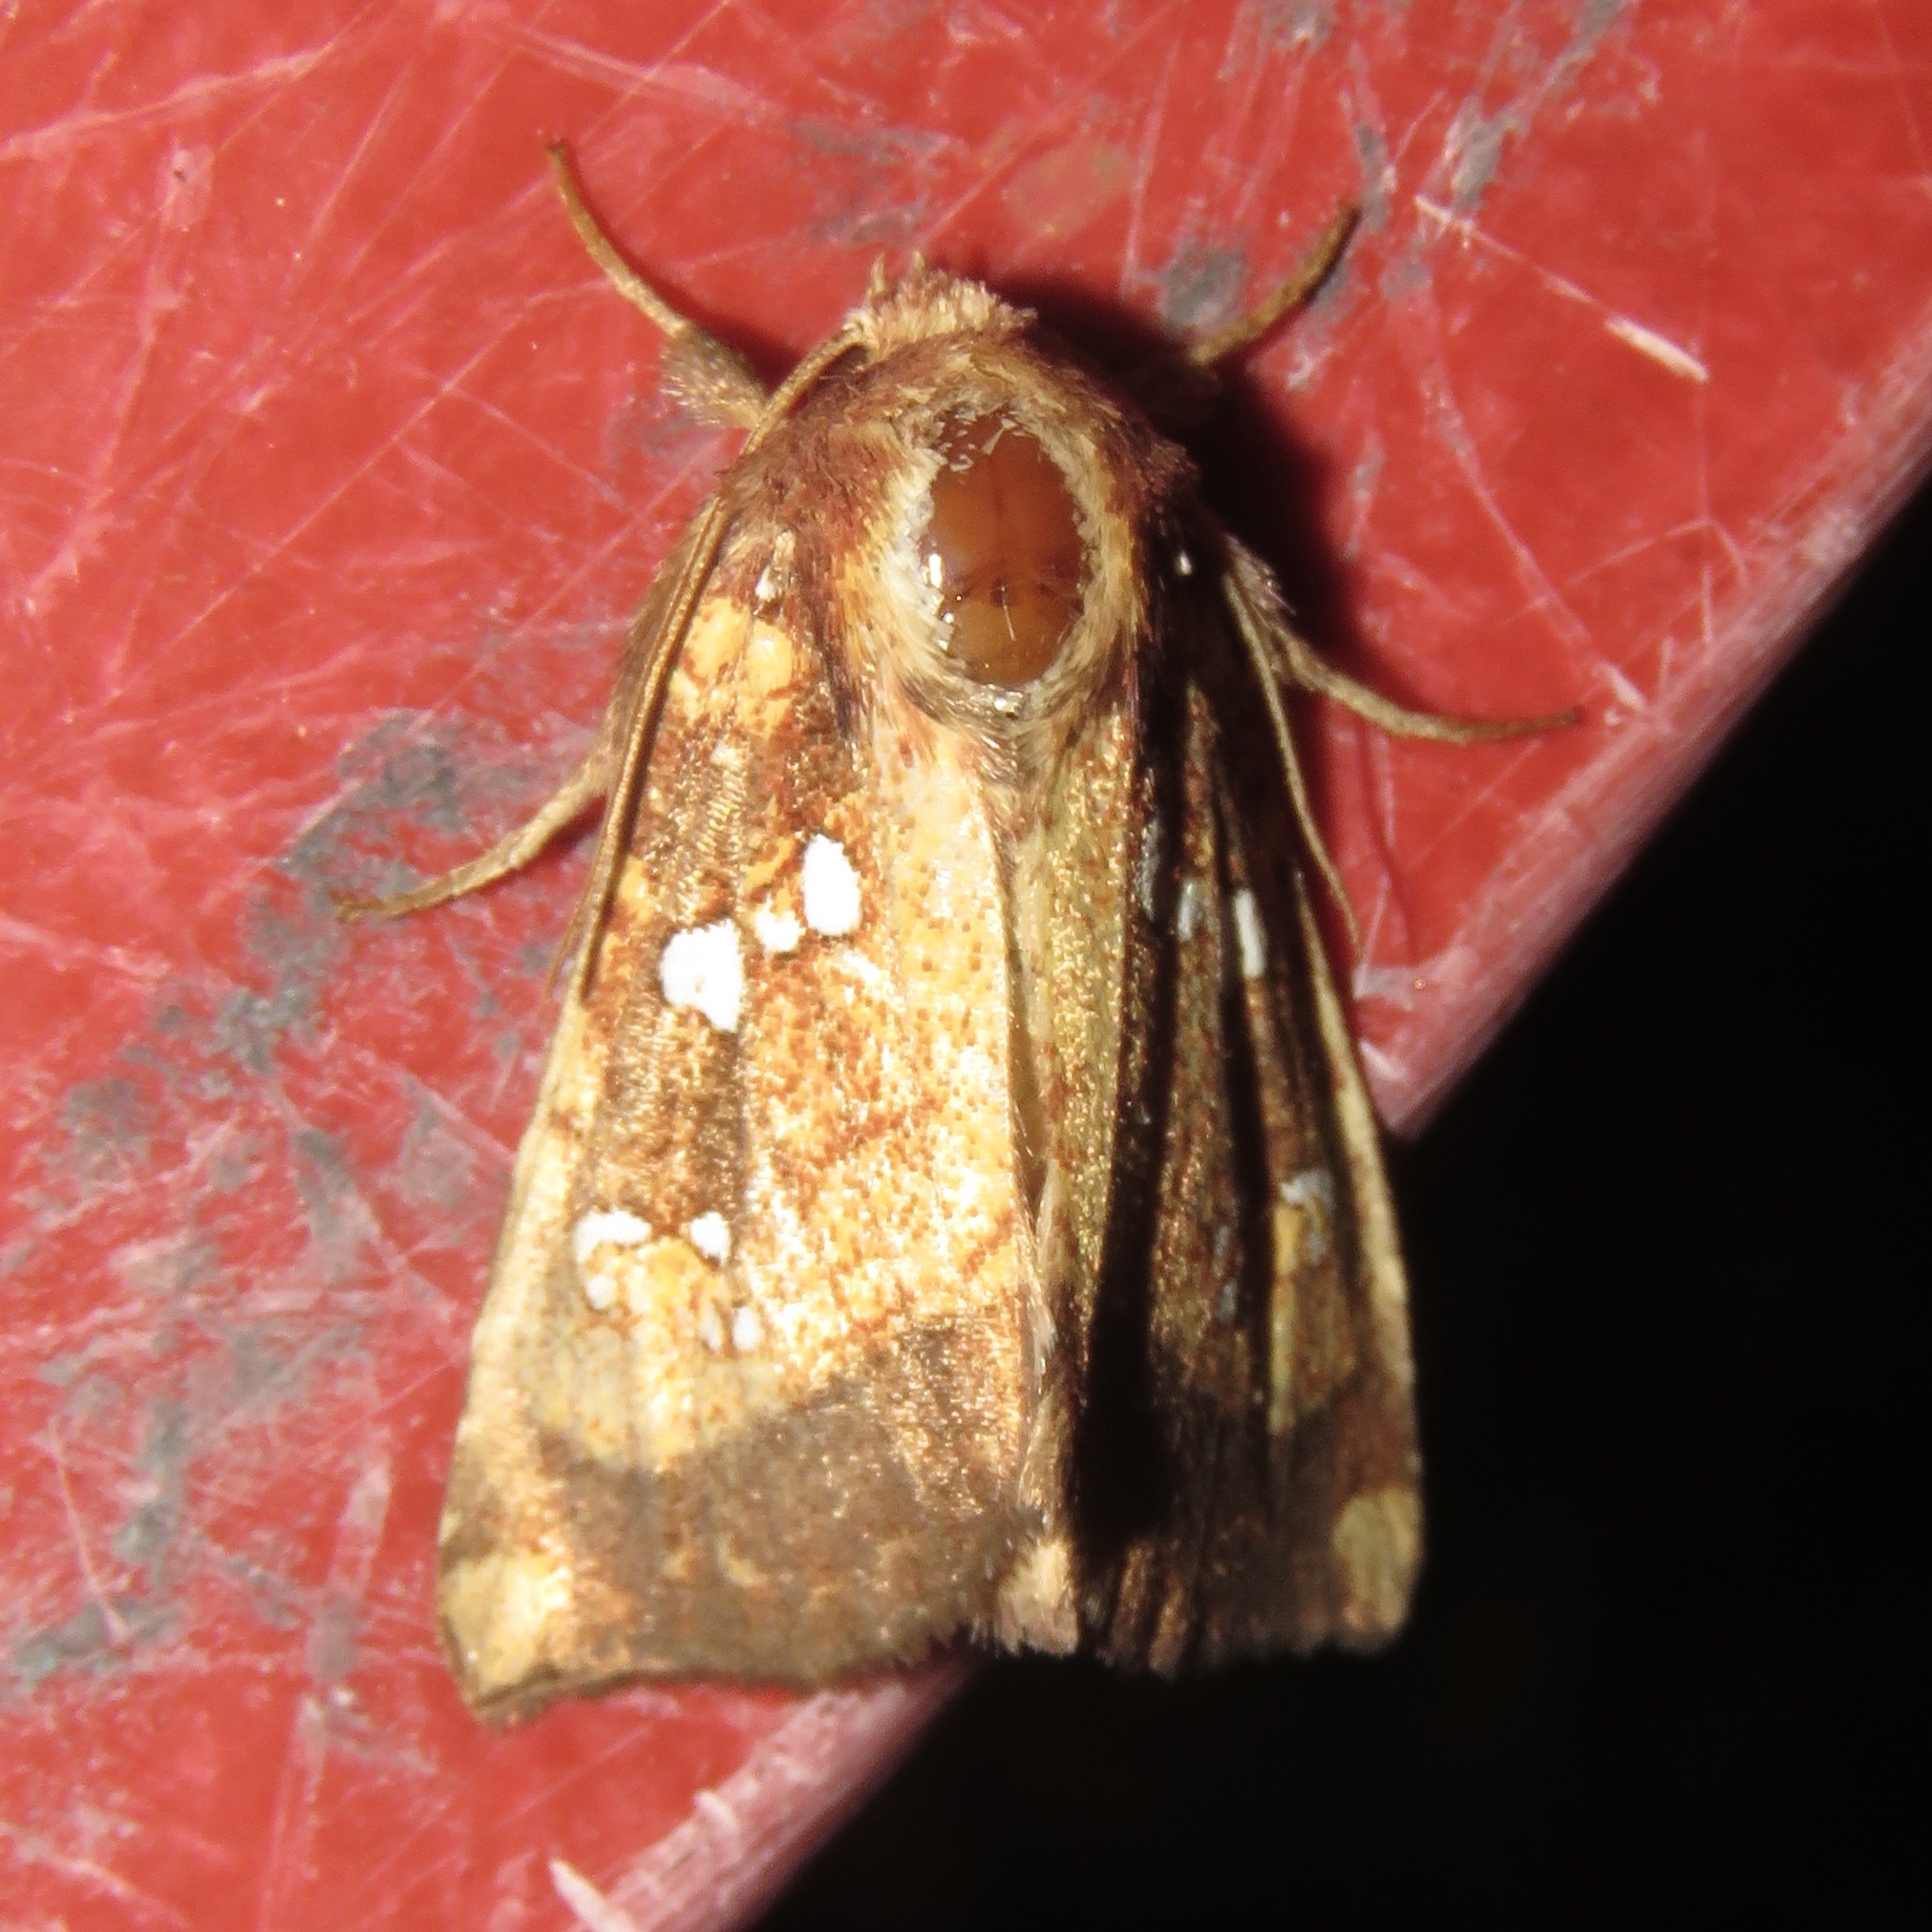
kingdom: Animalia
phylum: Arthropoda
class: Insecta
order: Lepidoptera
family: Noctuidae
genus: Papaipema
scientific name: Papaipema arctivorens
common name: Northern burdock borer moth
